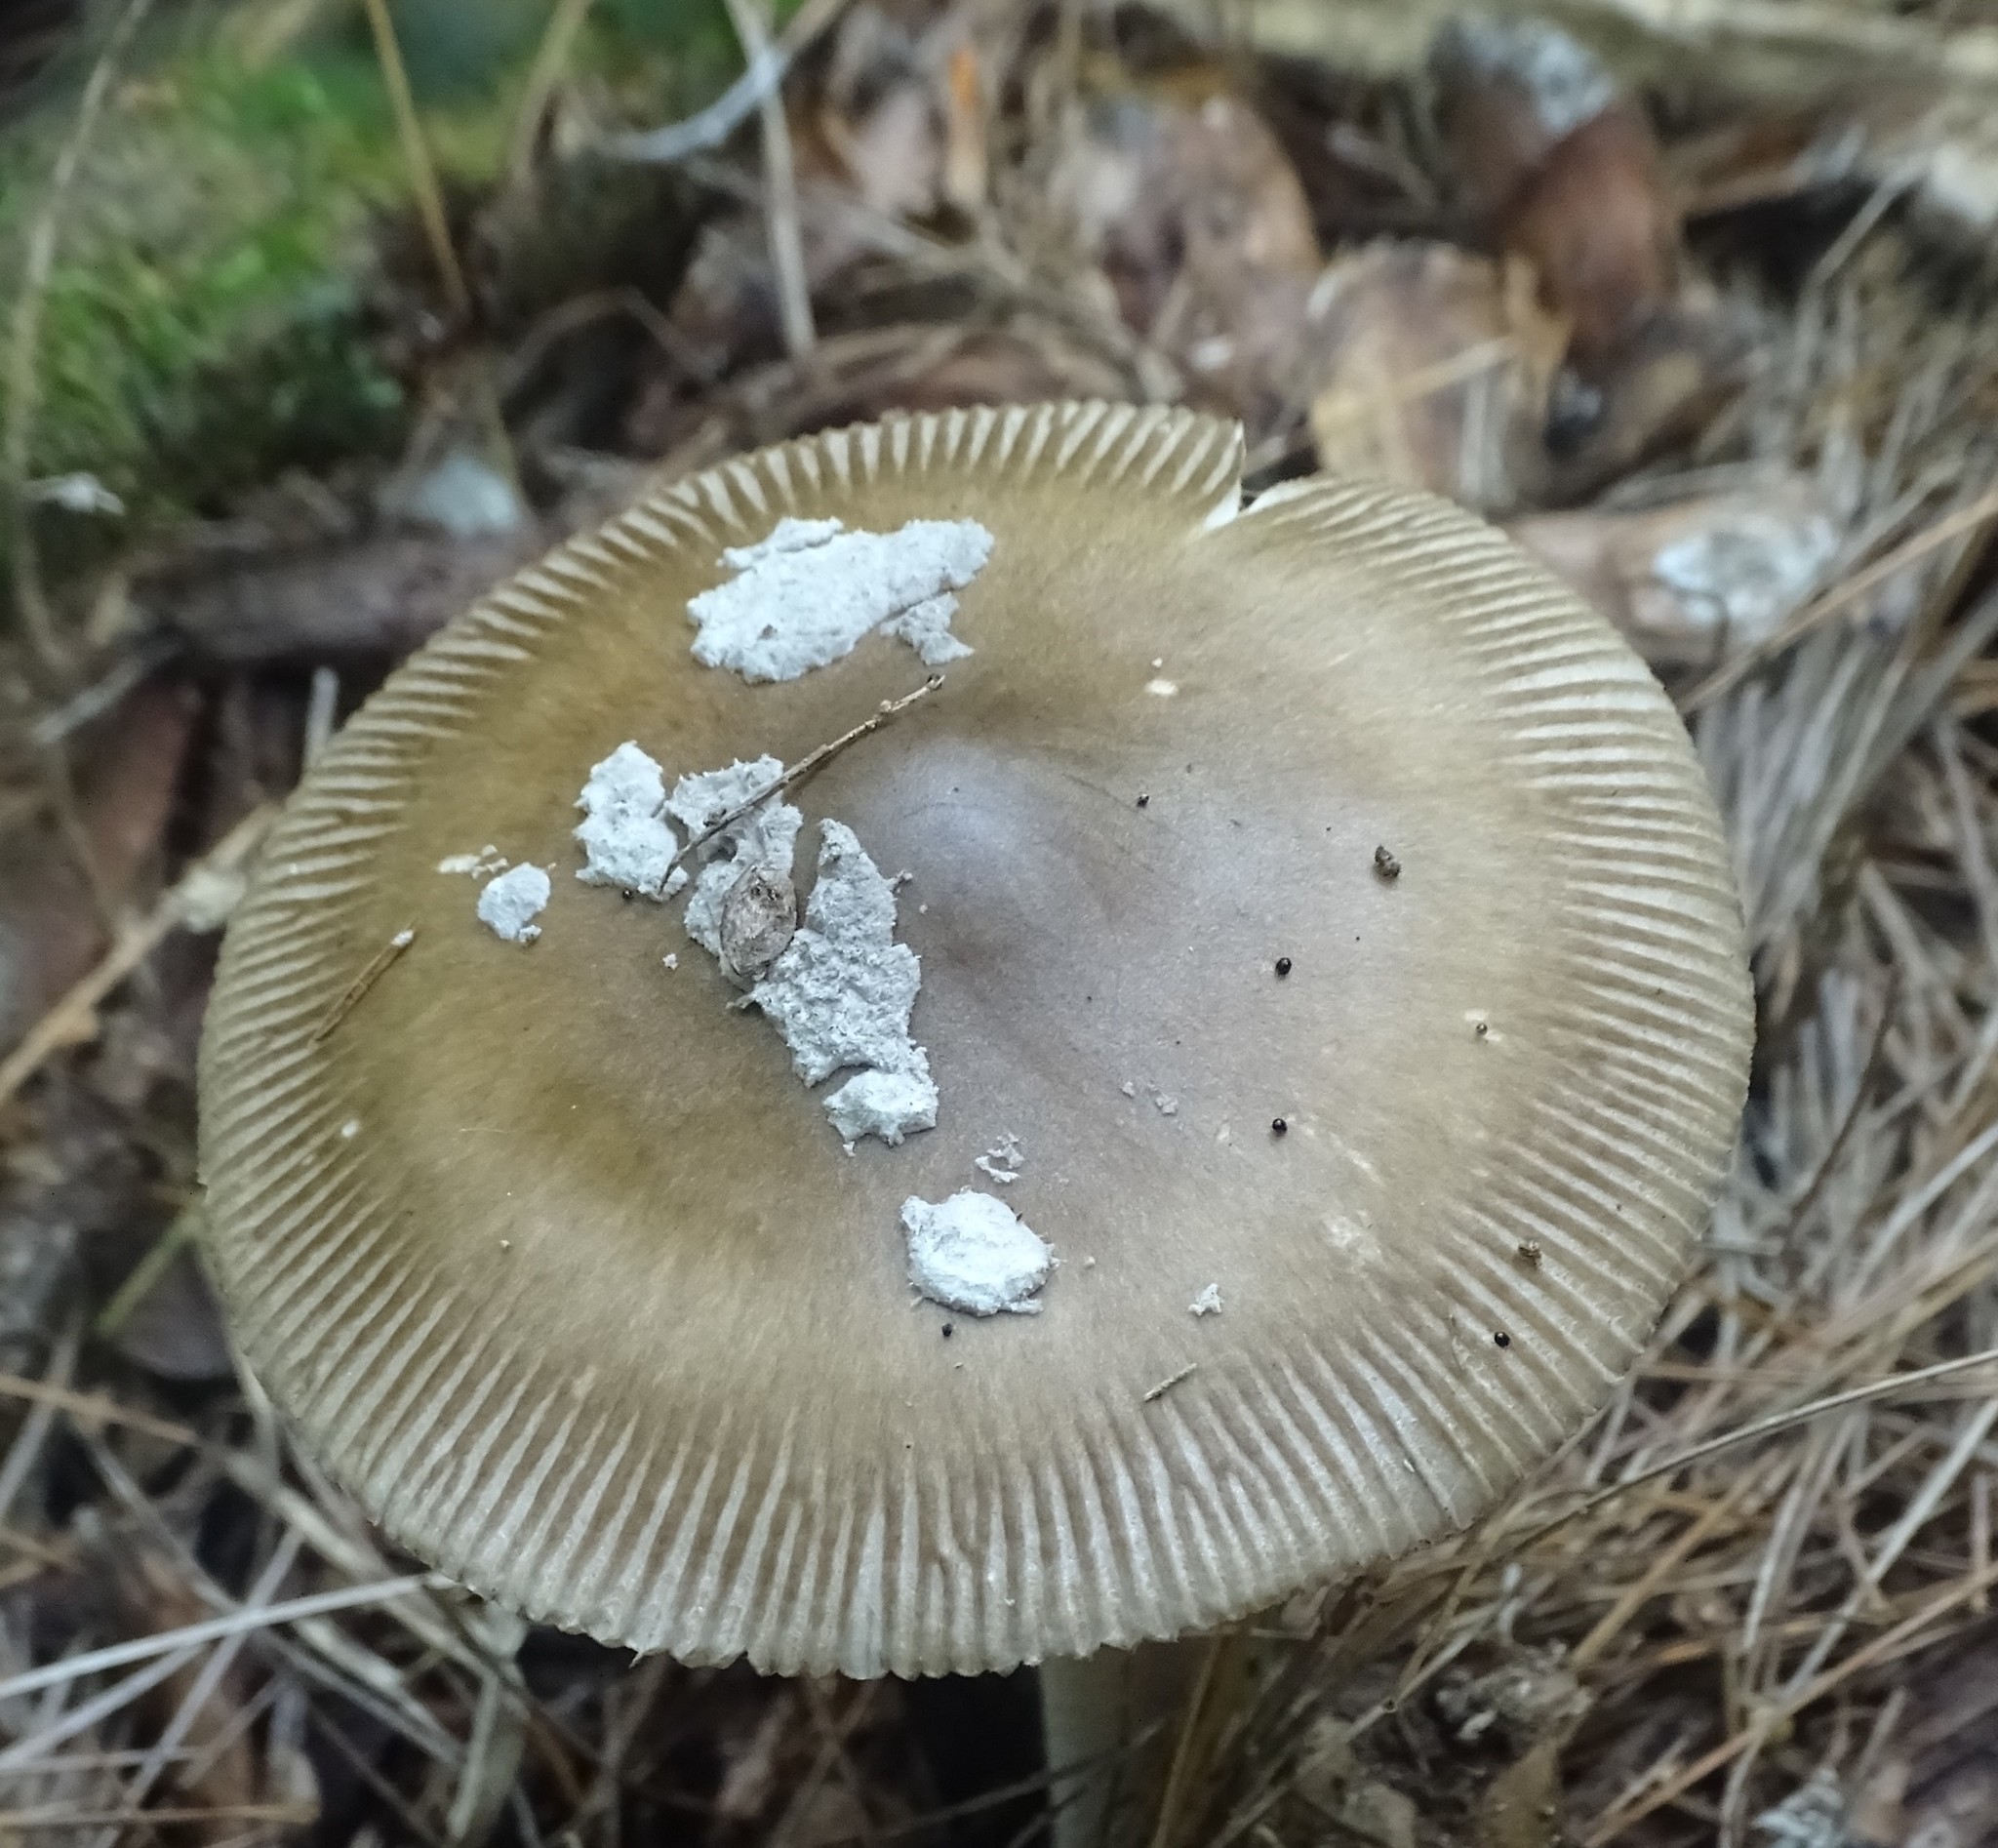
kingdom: Fungi
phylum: Basidiomycota
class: Agaricomycetes
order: Agaricales
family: Amanitaceae
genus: Amanita
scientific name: Amanita rhacopus
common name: Shaggy legged ringless amanita
